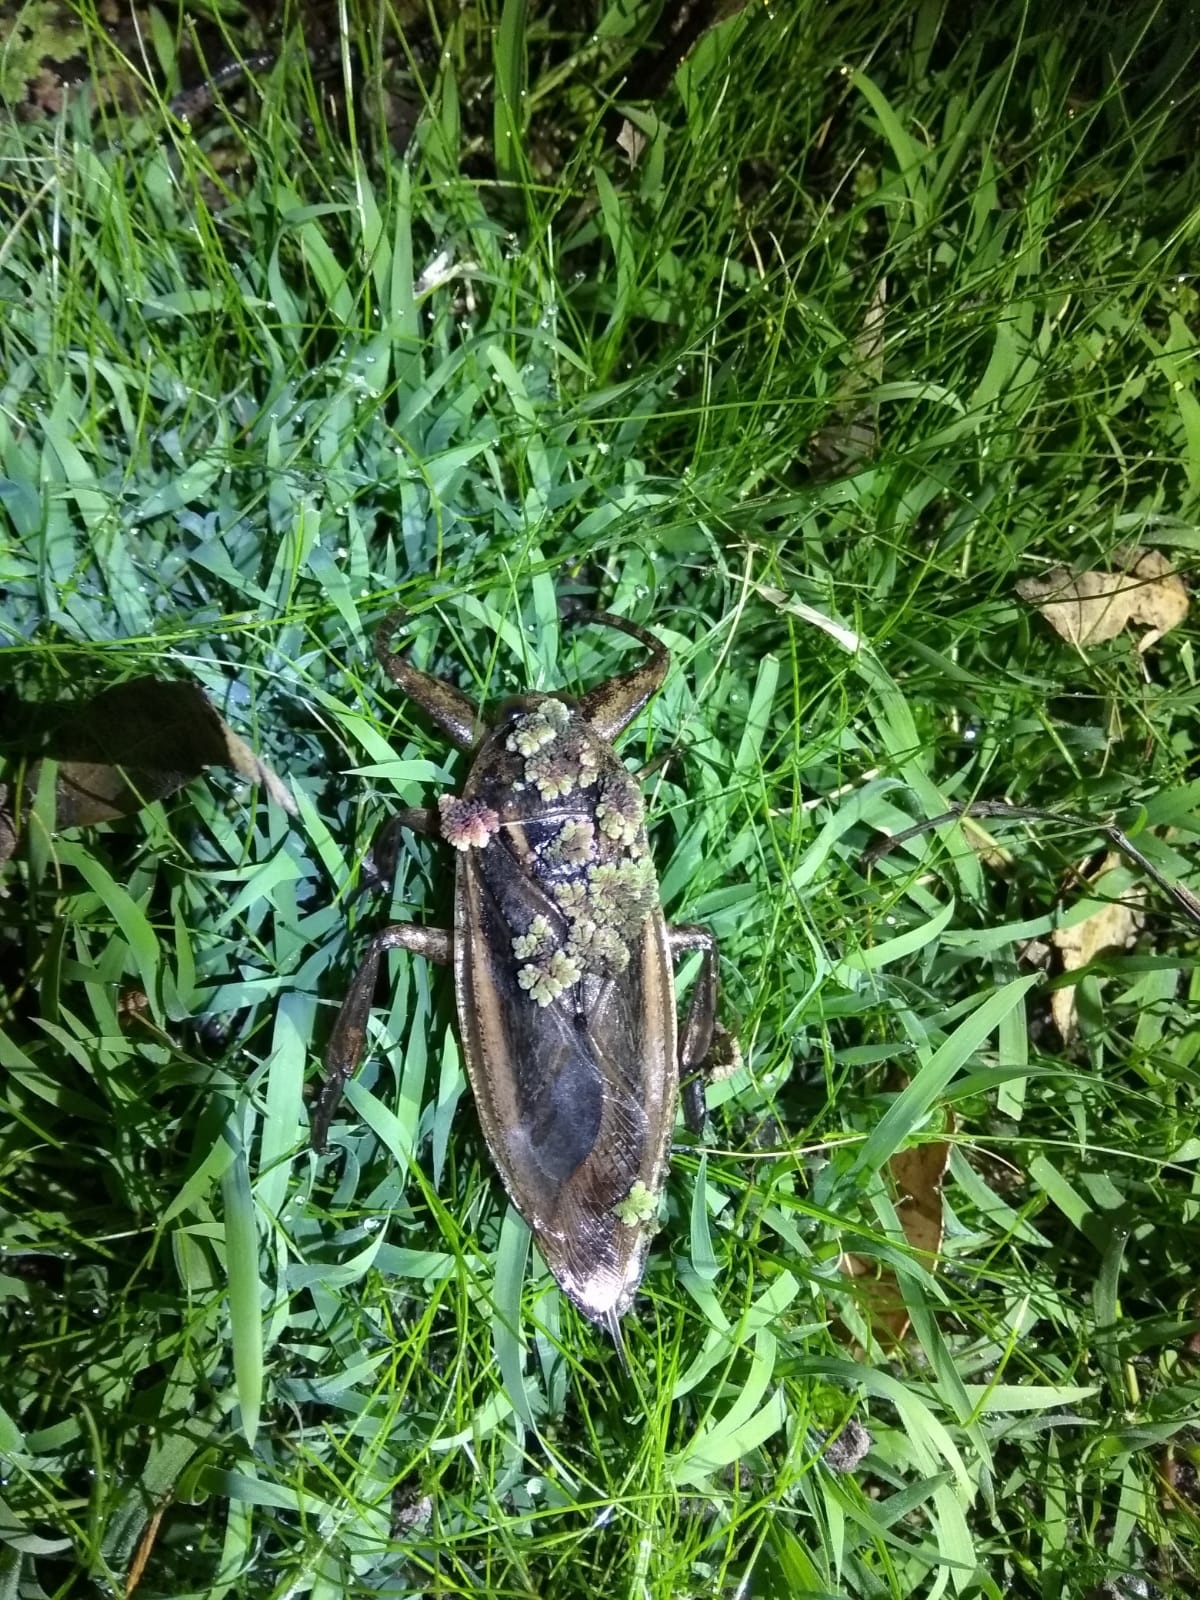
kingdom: Animalia
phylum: Arthropoda
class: Insecta
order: Hemiptera
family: Belostomatidae
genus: Lethocerus
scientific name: Lethocerus annulipes
